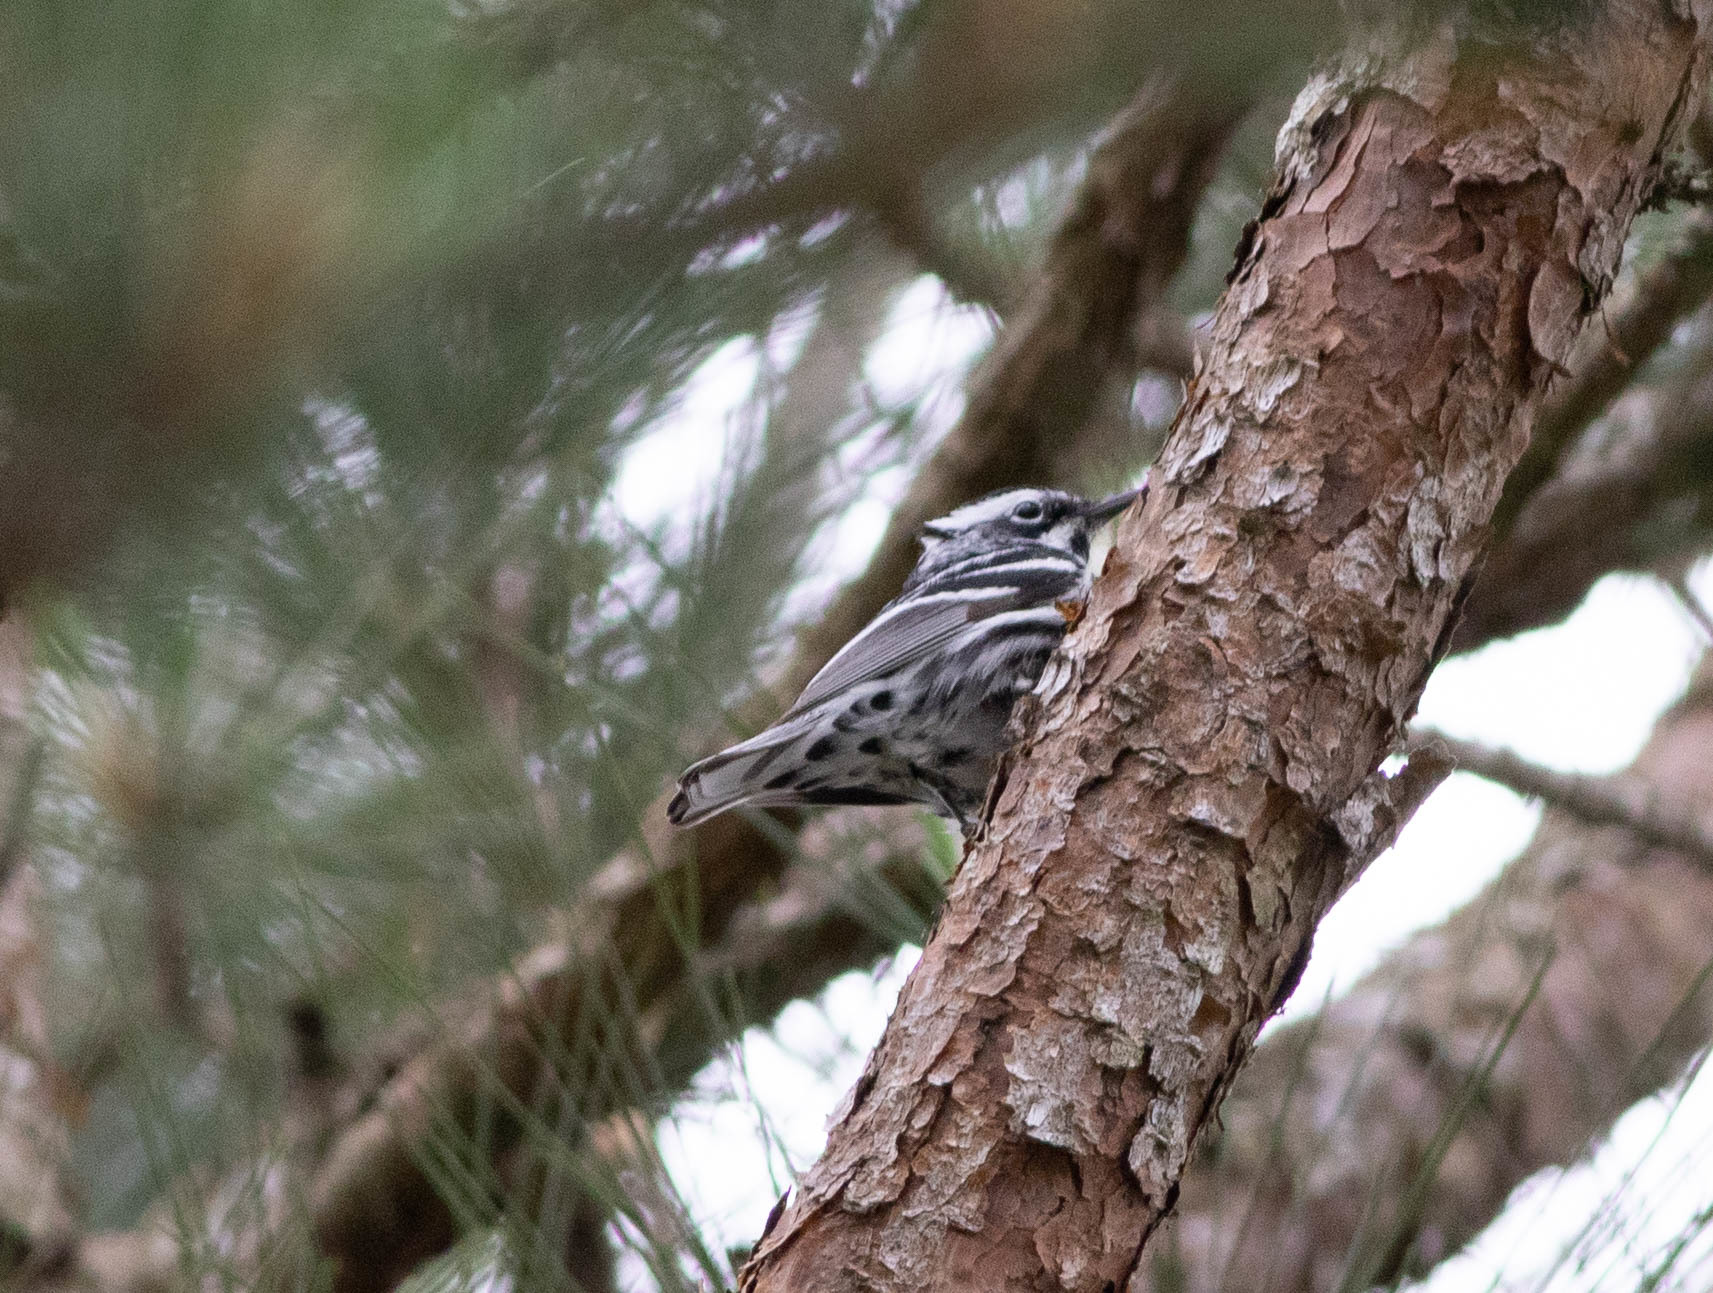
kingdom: Animalia
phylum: Chordata
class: Aves
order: Passeriformes
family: Parulidae
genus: Mniotilta
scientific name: Mniotilta varia
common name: Black-and-white warbler
